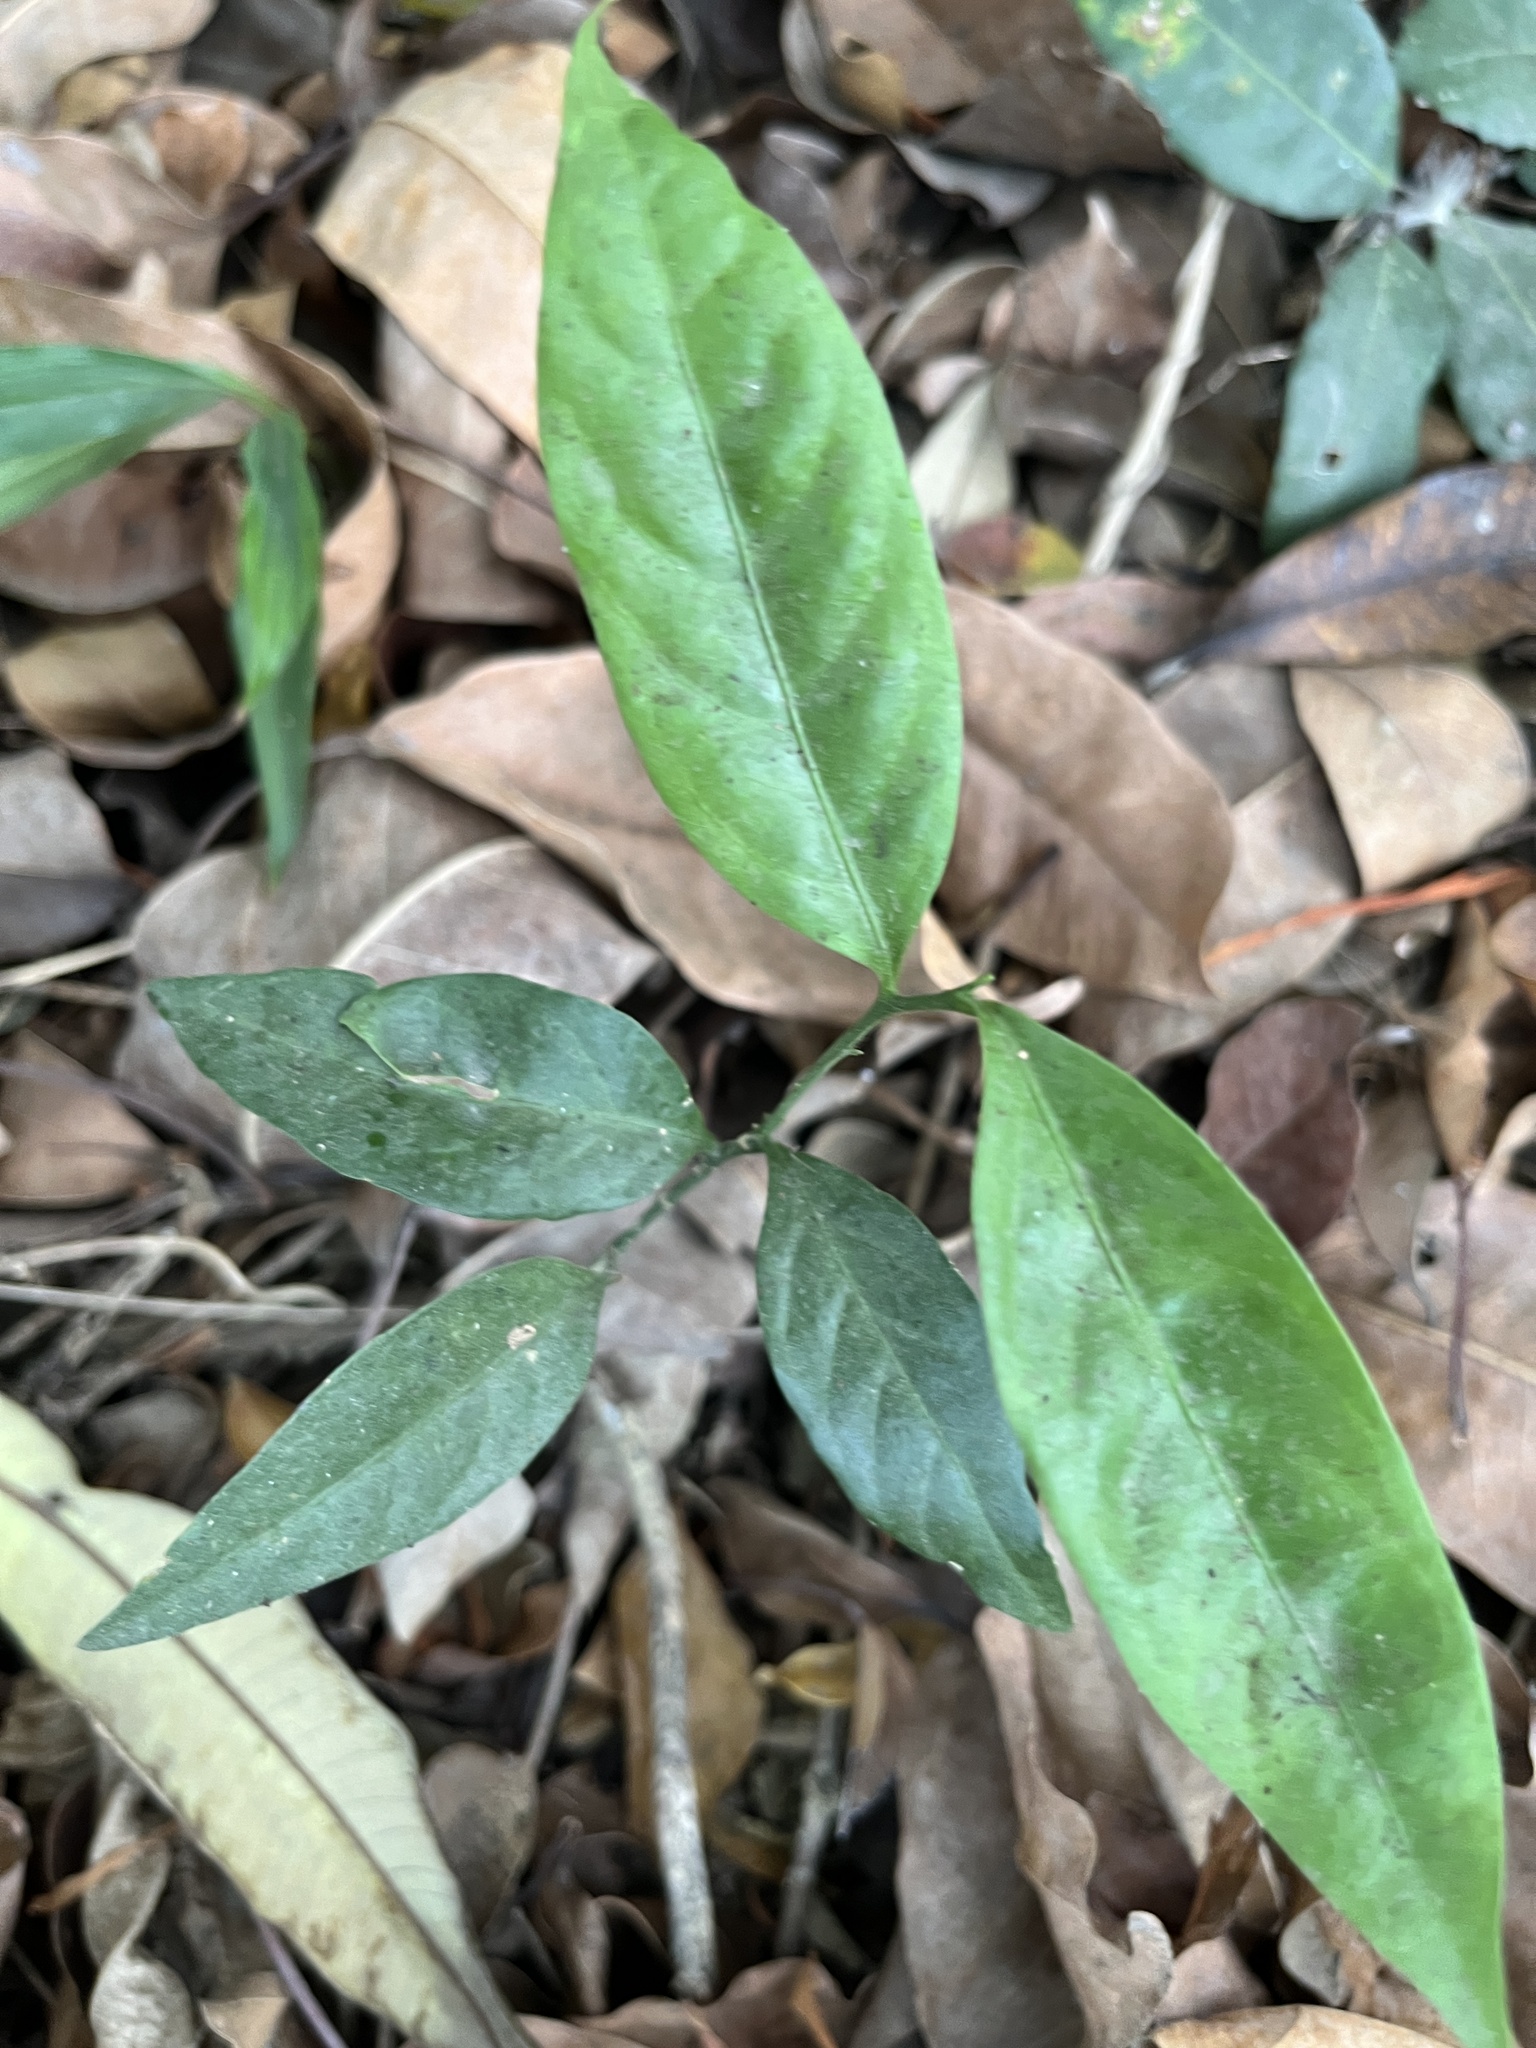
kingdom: Plantae
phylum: Tracheophyta
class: Magnoliopsida
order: Santalales
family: Opiliaceae
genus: Champereia
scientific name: Champereia manillana
